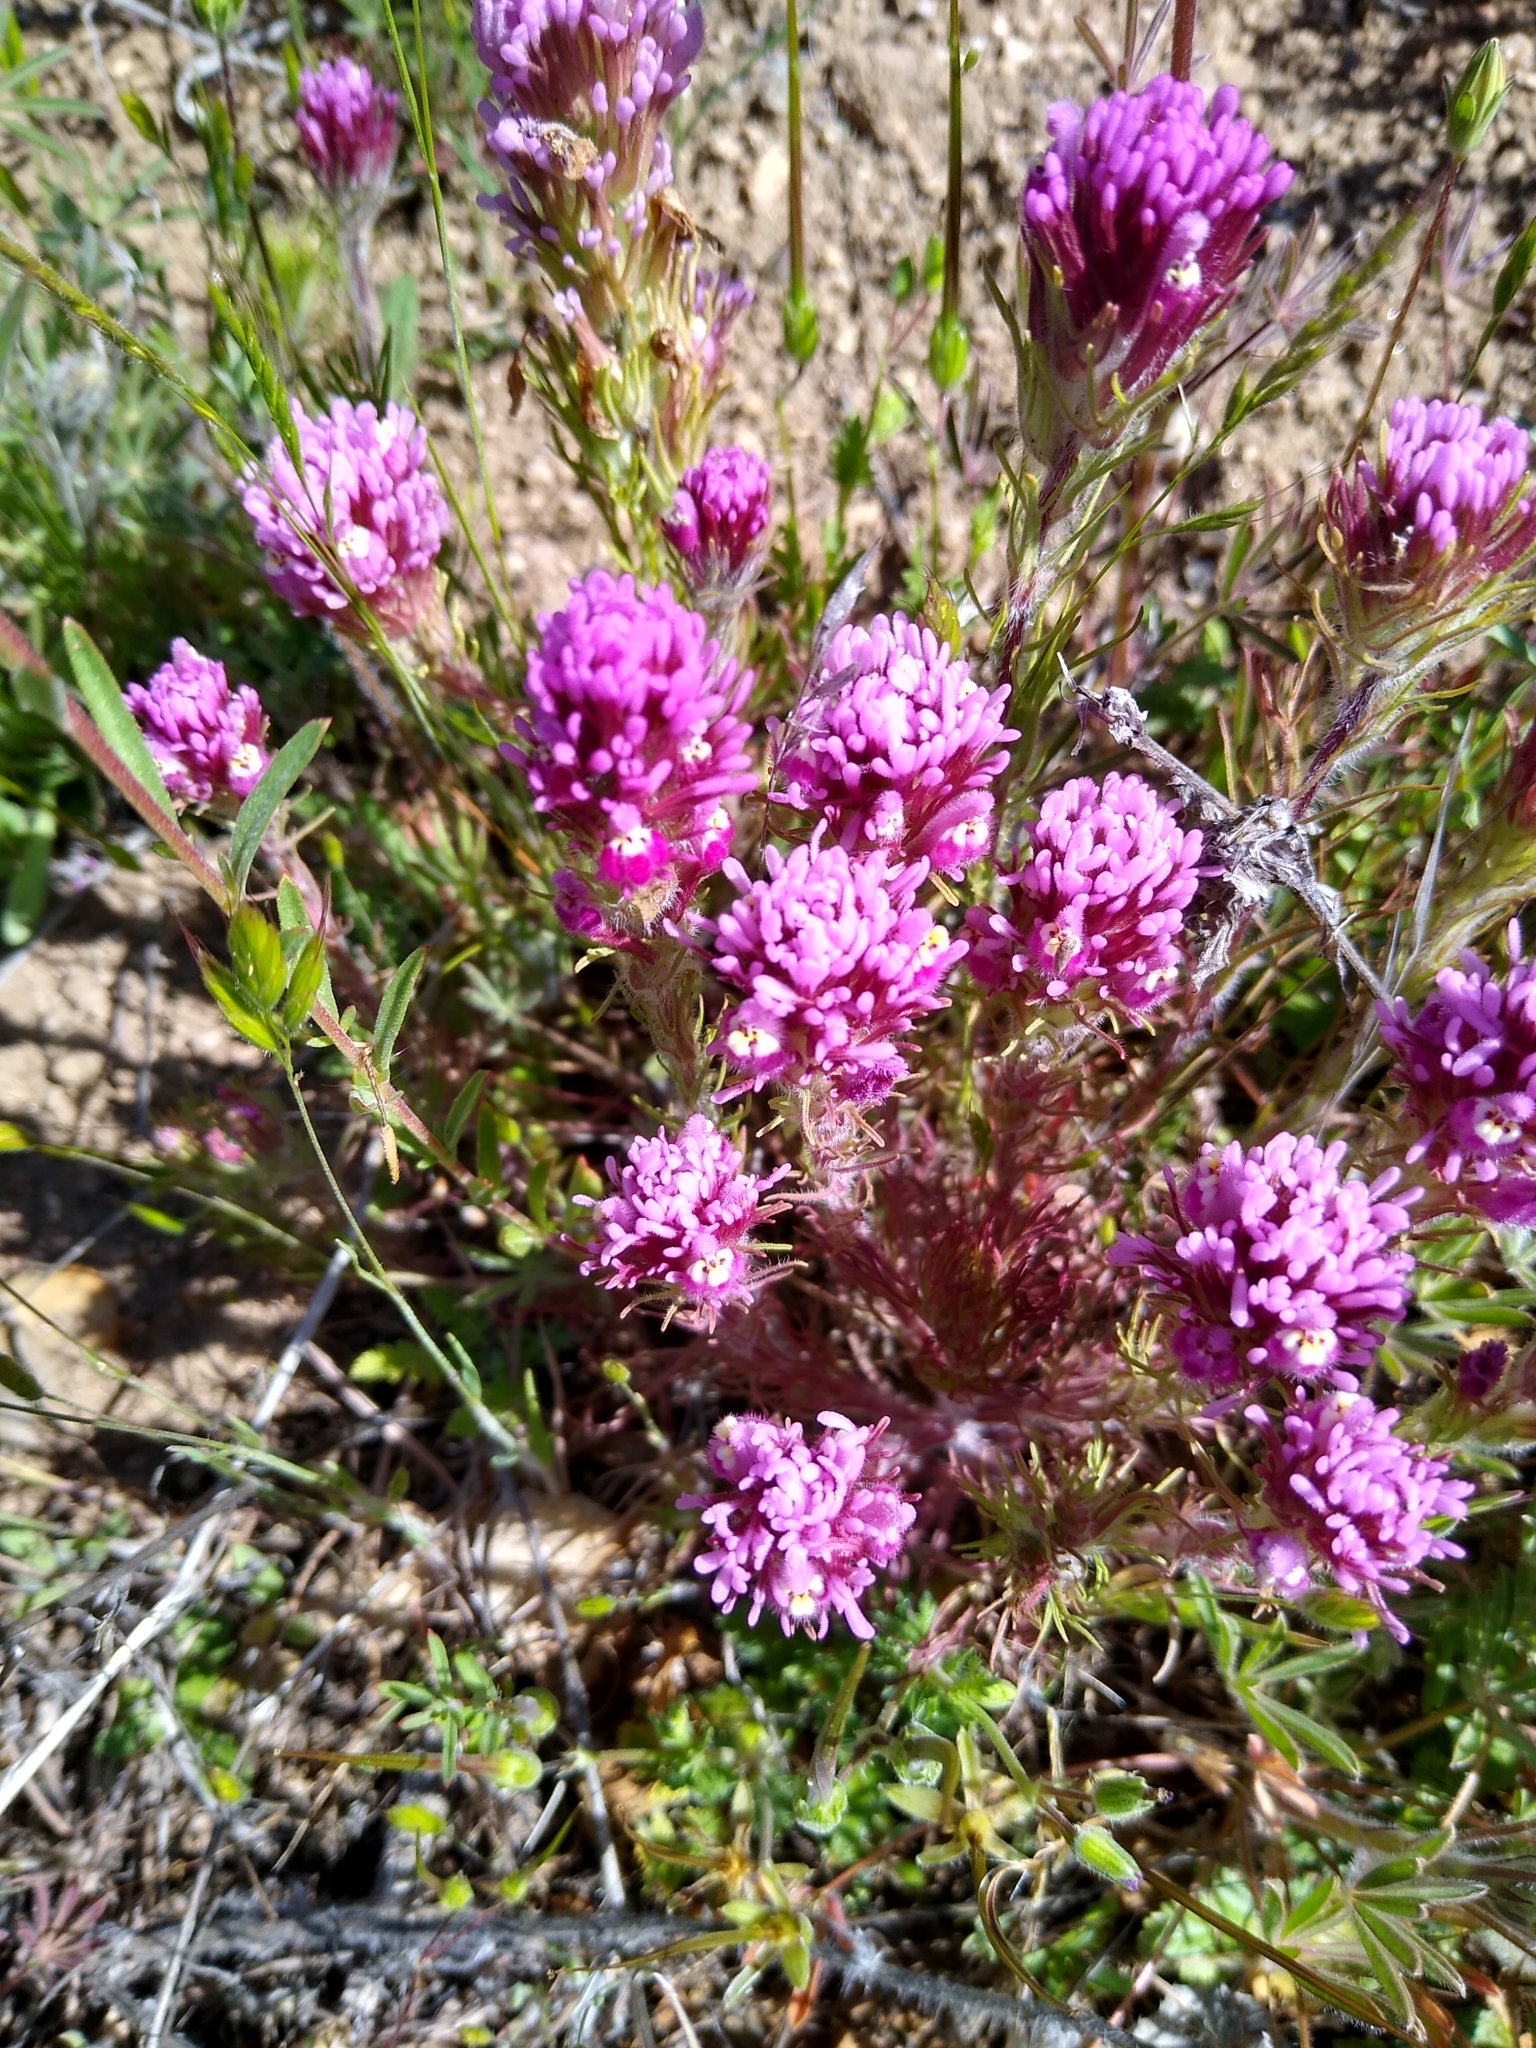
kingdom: Plantae
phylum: Tracheophyta
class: Magnoliopsida
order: Lamiales
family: Orobanchaceae
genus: Castilleja
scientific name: Castilleja exserta
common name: Purple owl-clover
